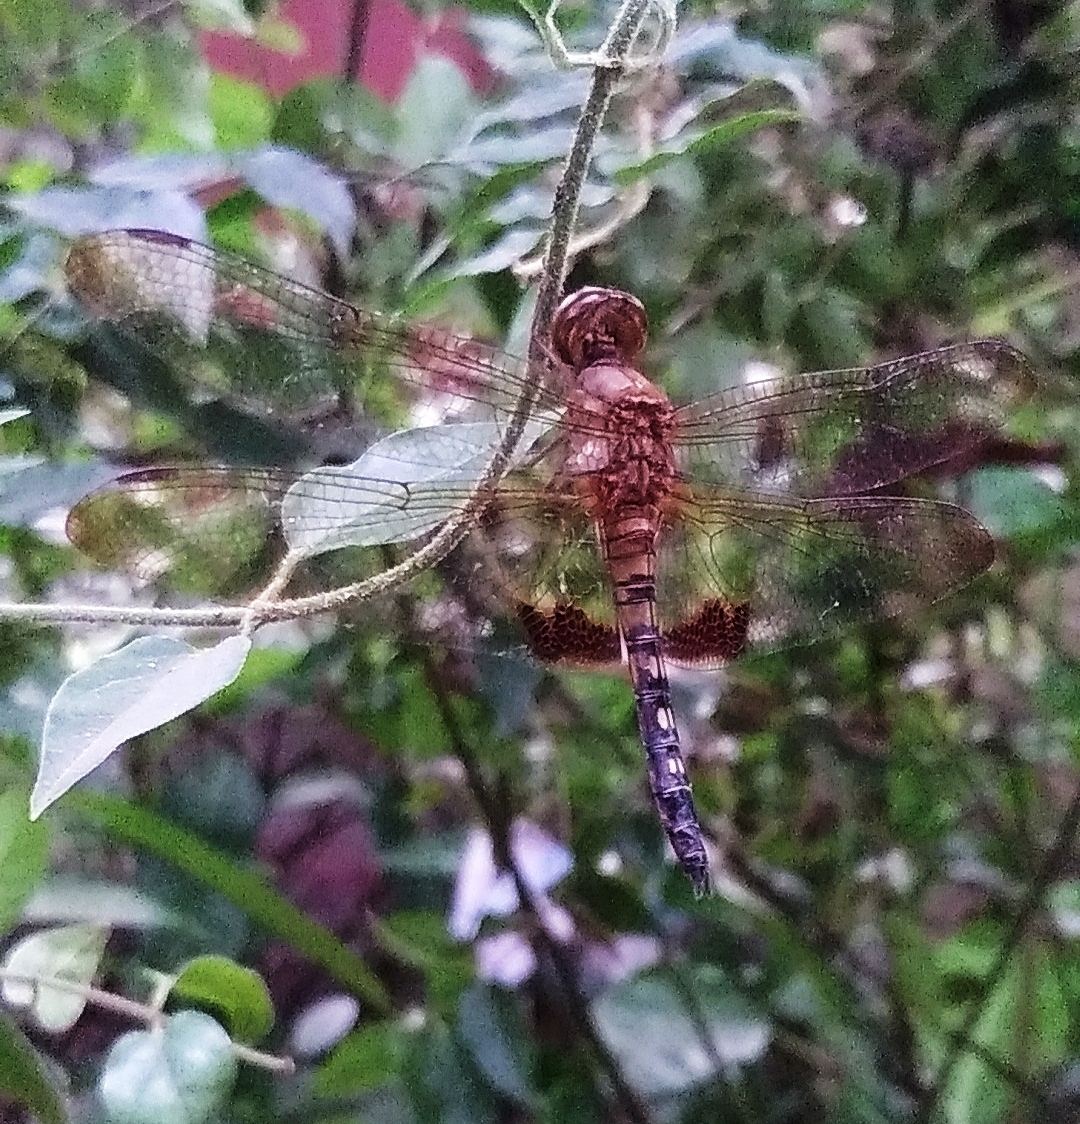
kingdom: Animalia
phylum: Arthropoda
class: Insecta
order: Odonata
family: Libellulidae
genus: Hydrobasileus
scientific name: Hydrobasileus croceus
